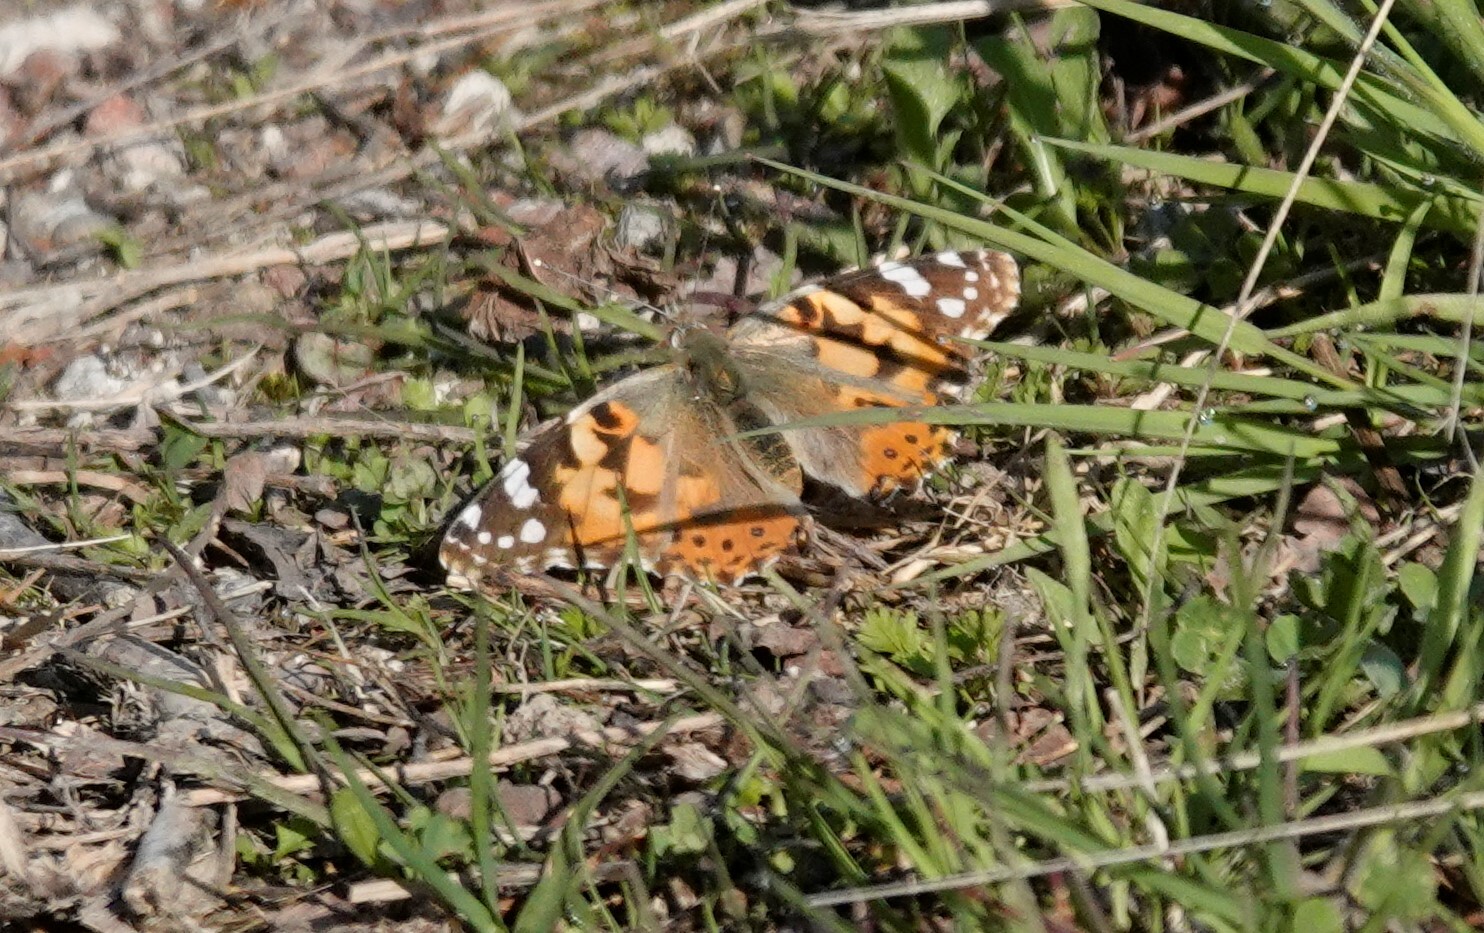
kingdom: Animalia
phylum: Arthropoda
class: Insecta
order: Lepidoptera
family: Nymphalidae
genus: Vanessa
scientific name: Vanessa cardui
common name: Painted lady
